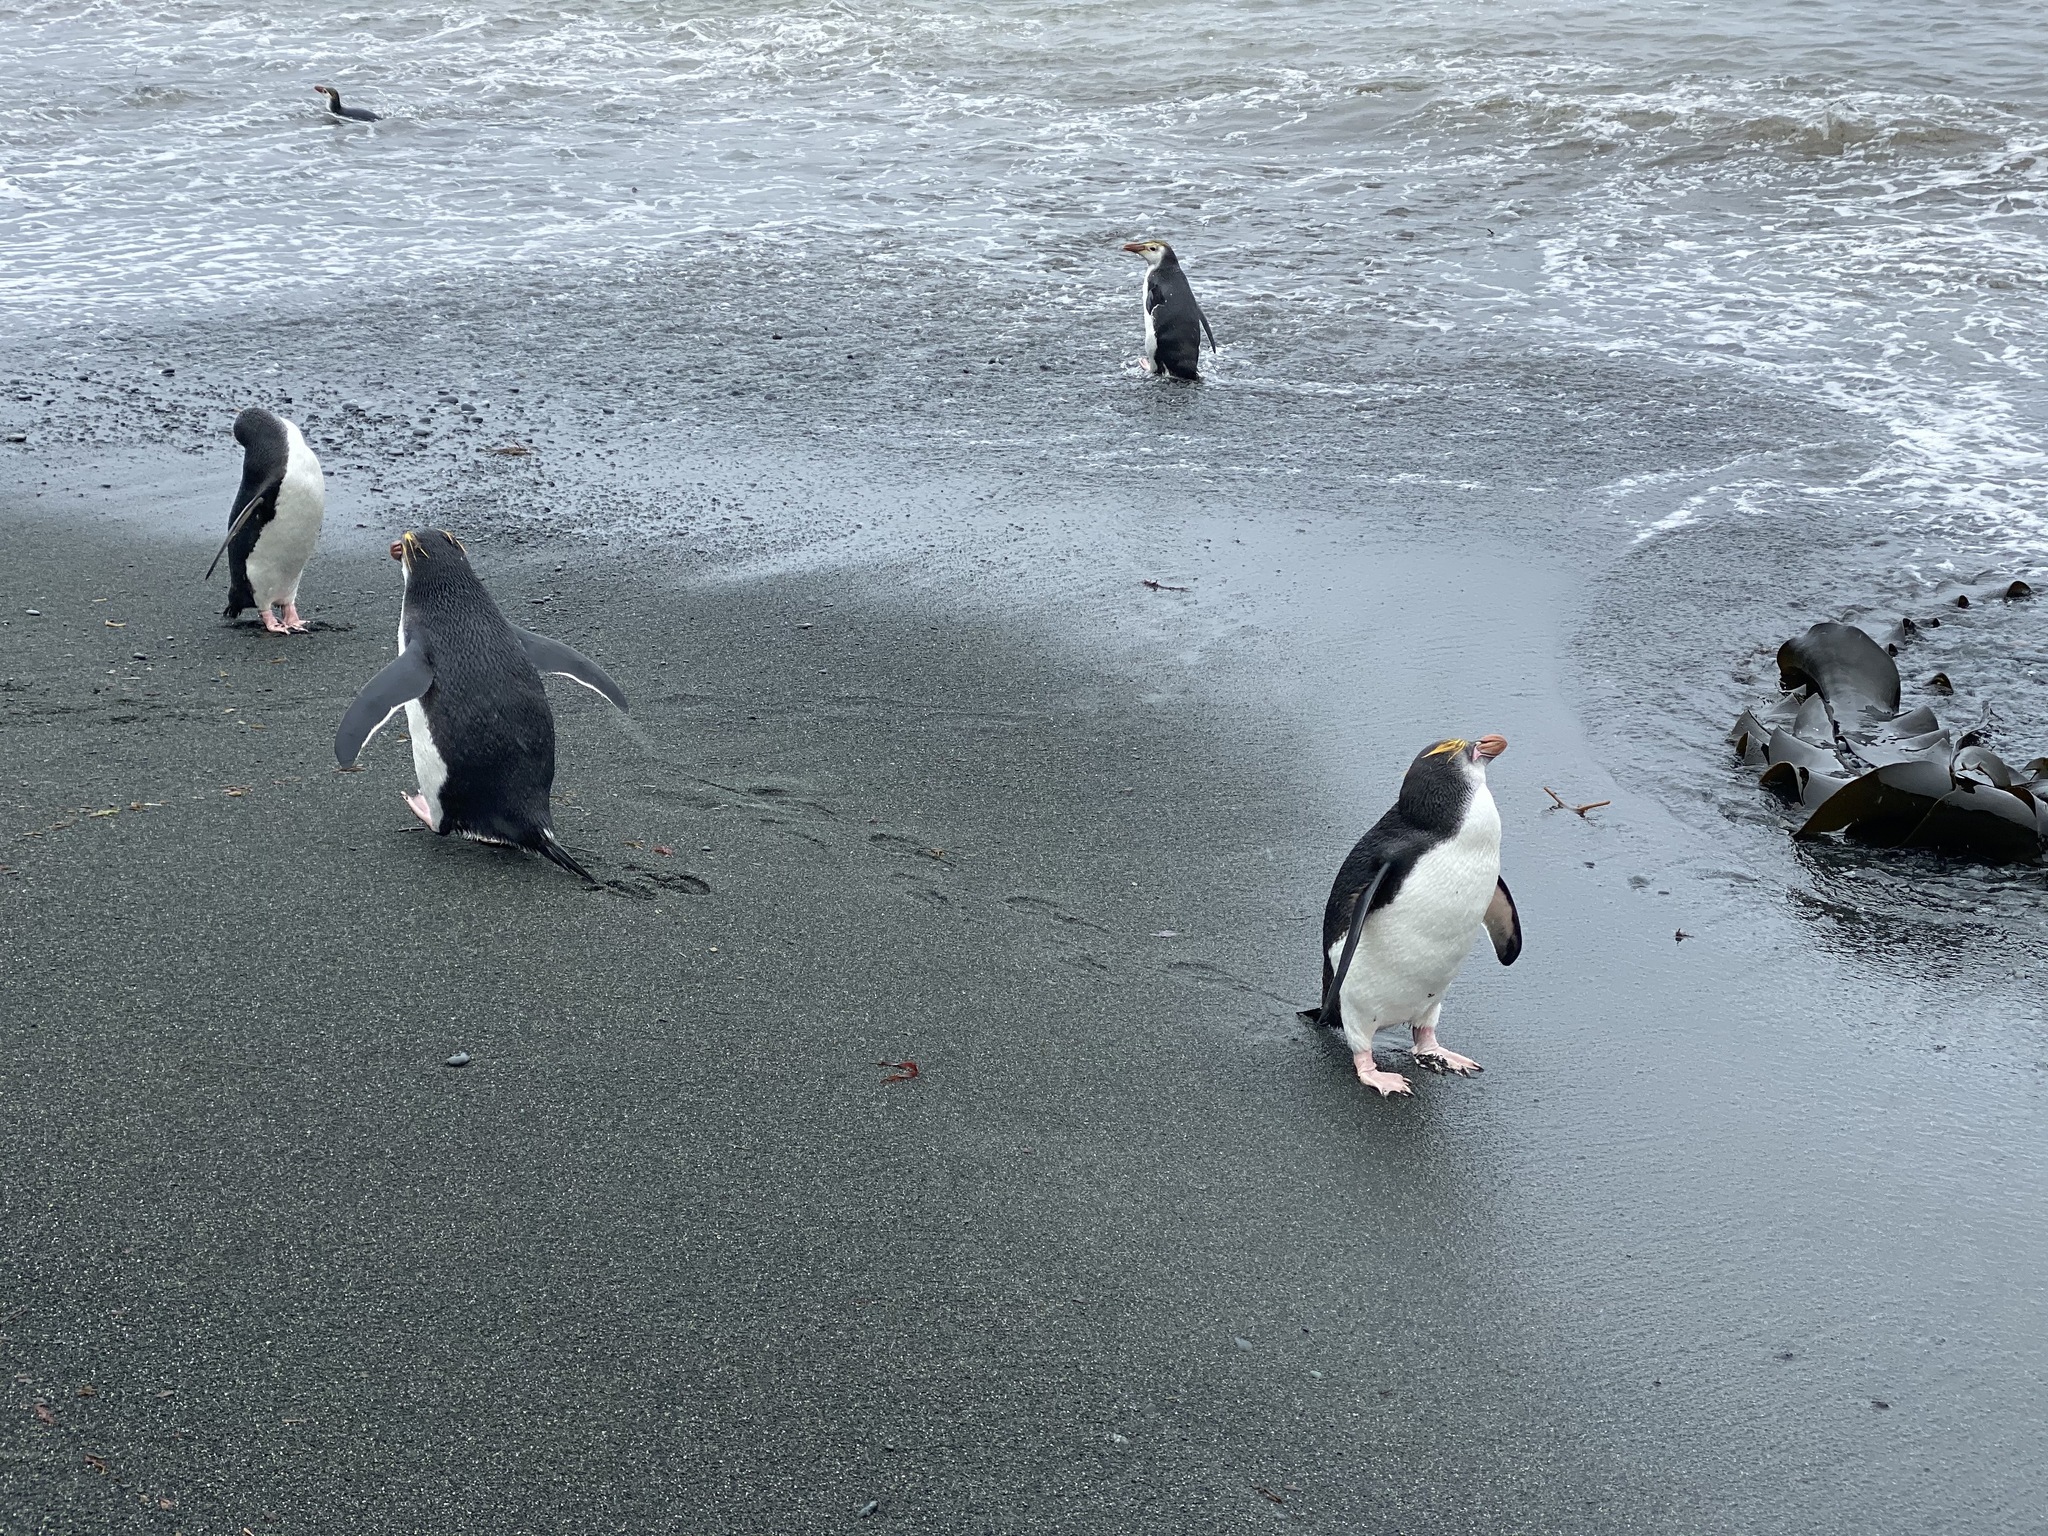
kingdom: Animalia
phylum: Chordata
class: Aves
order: Sphenisciformes
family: Spheniscidae
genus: Eudyptes
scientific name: Eudyptes schlegeli
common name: Royal penguin
